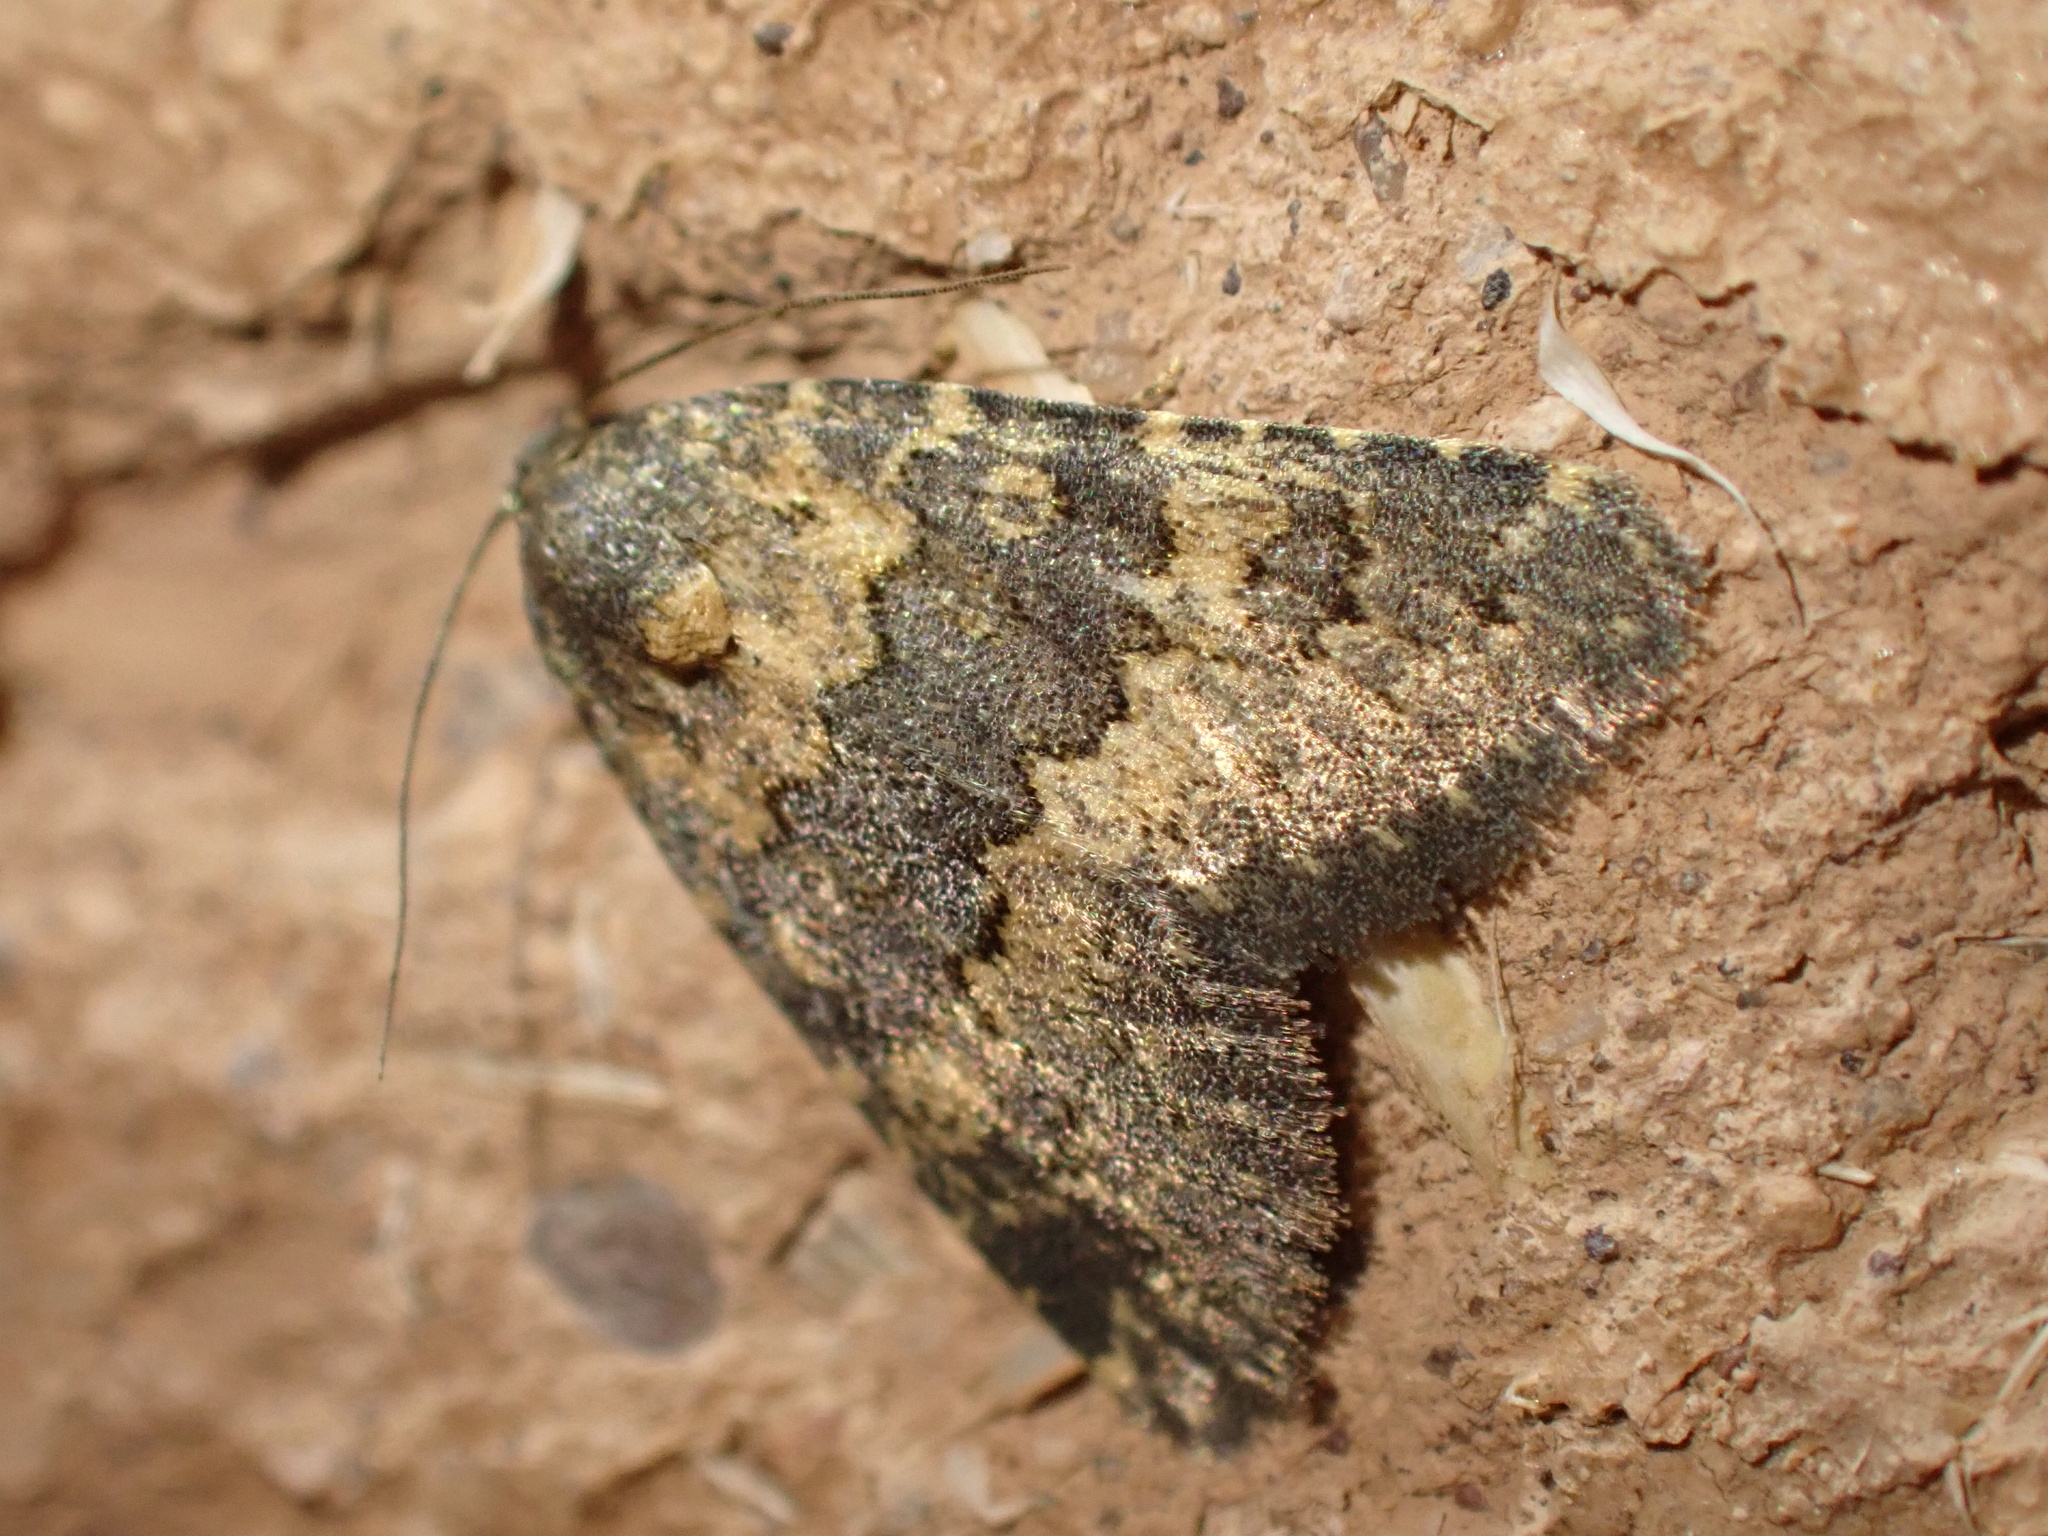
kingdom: Animalia
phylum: Arthropoda
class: Insecta
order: Lepidoptera
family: Noctuidae
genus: Duhemia
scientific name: Duhemia variegata
